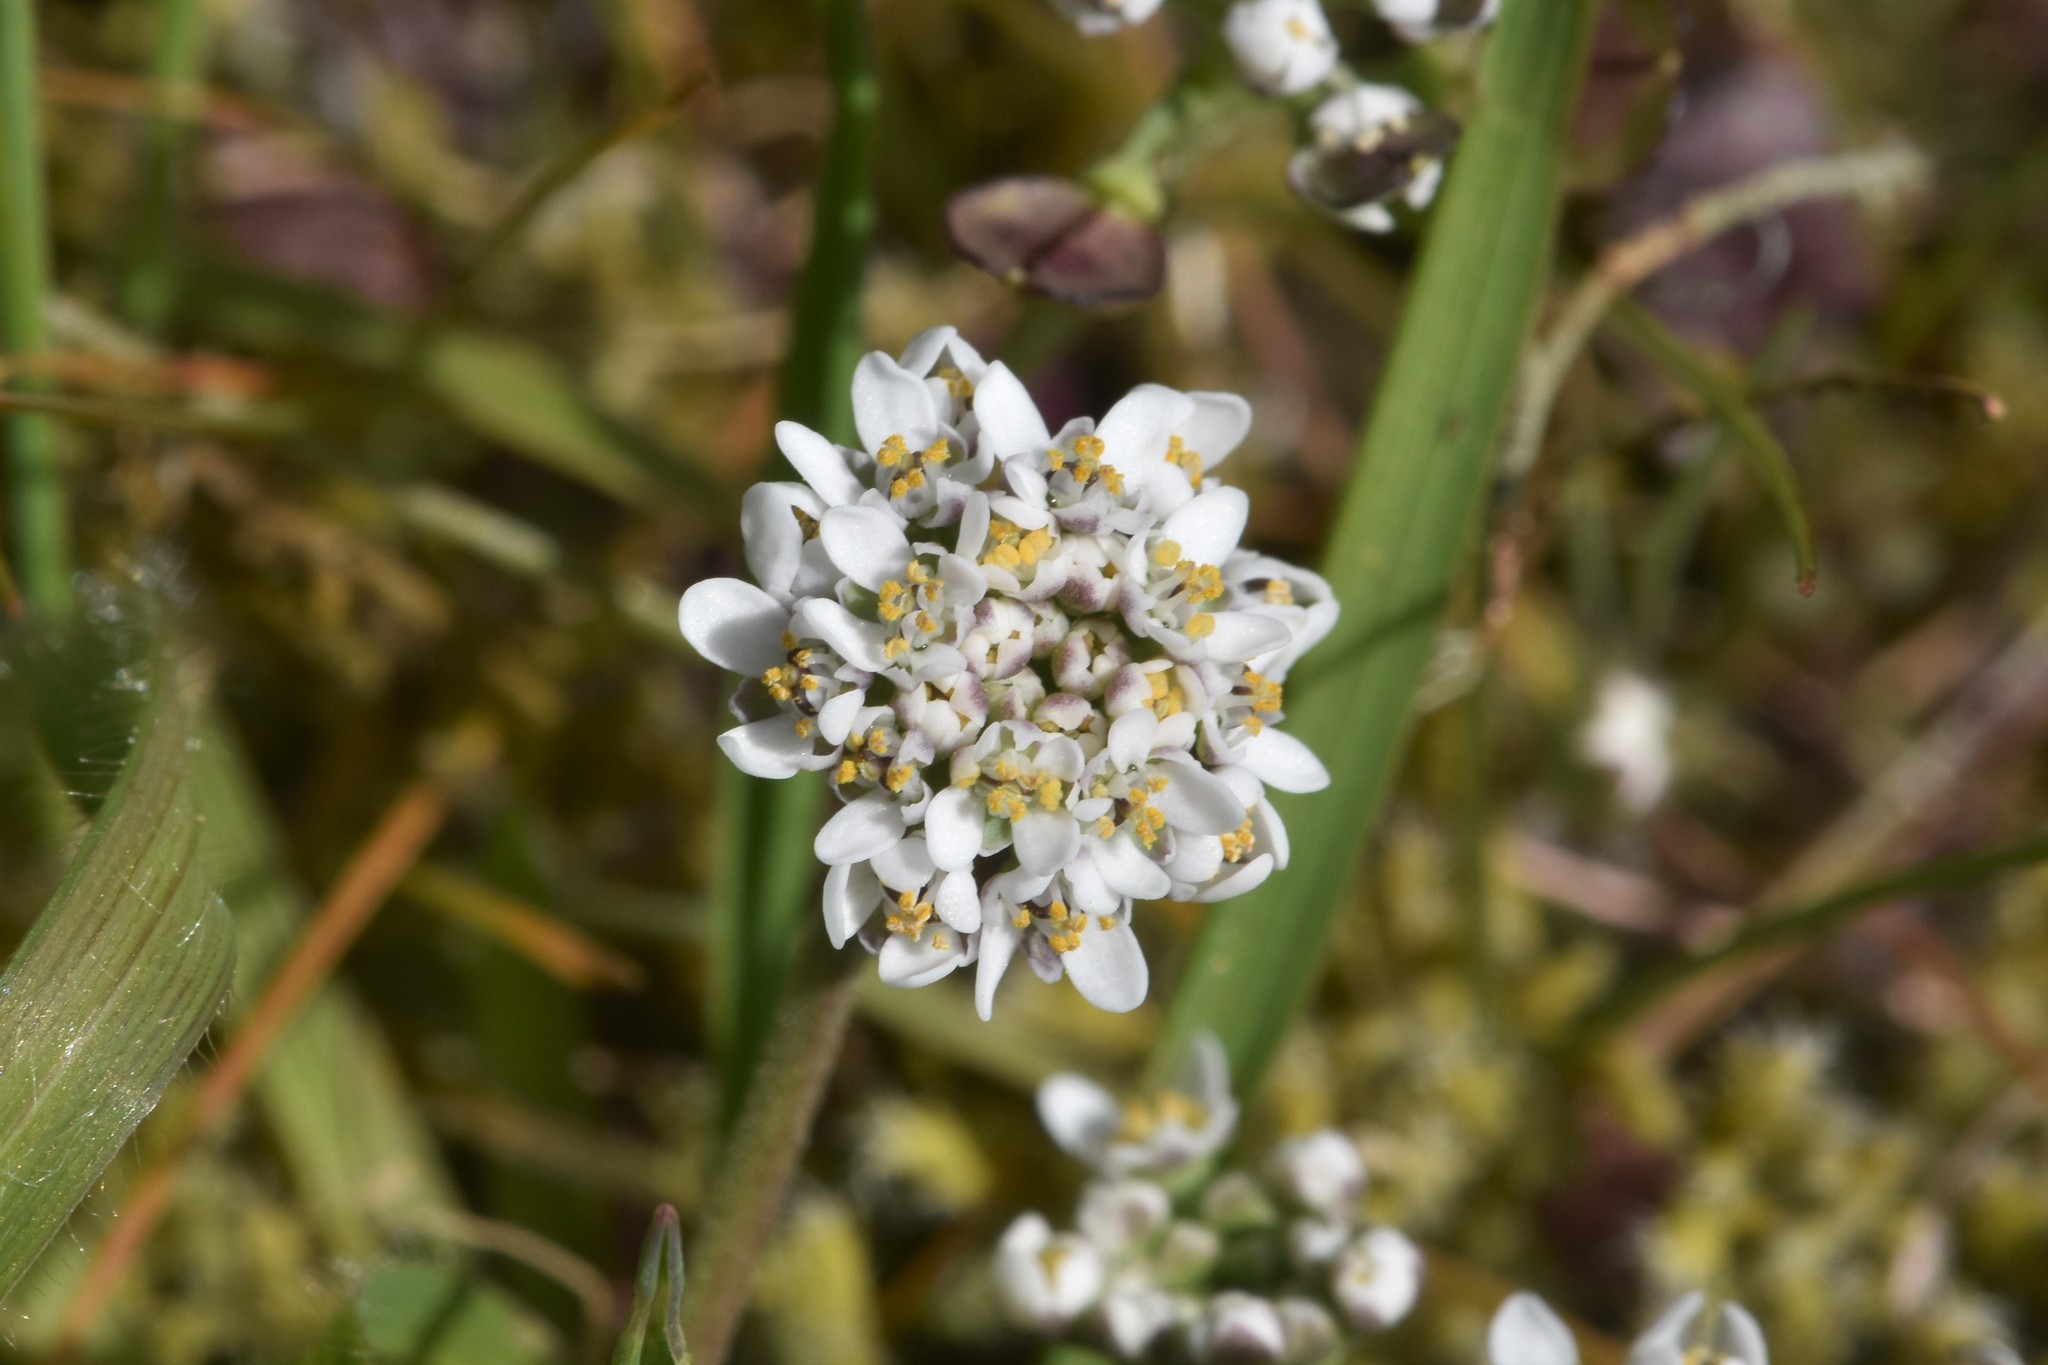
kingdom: Plantae
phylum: Tracheophyta
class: Magnoliopsida
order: Brassicales
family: Brassicaceae
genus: Teesdalia
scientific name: Teesdalia nudicaulis
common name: Shepherd's cress
